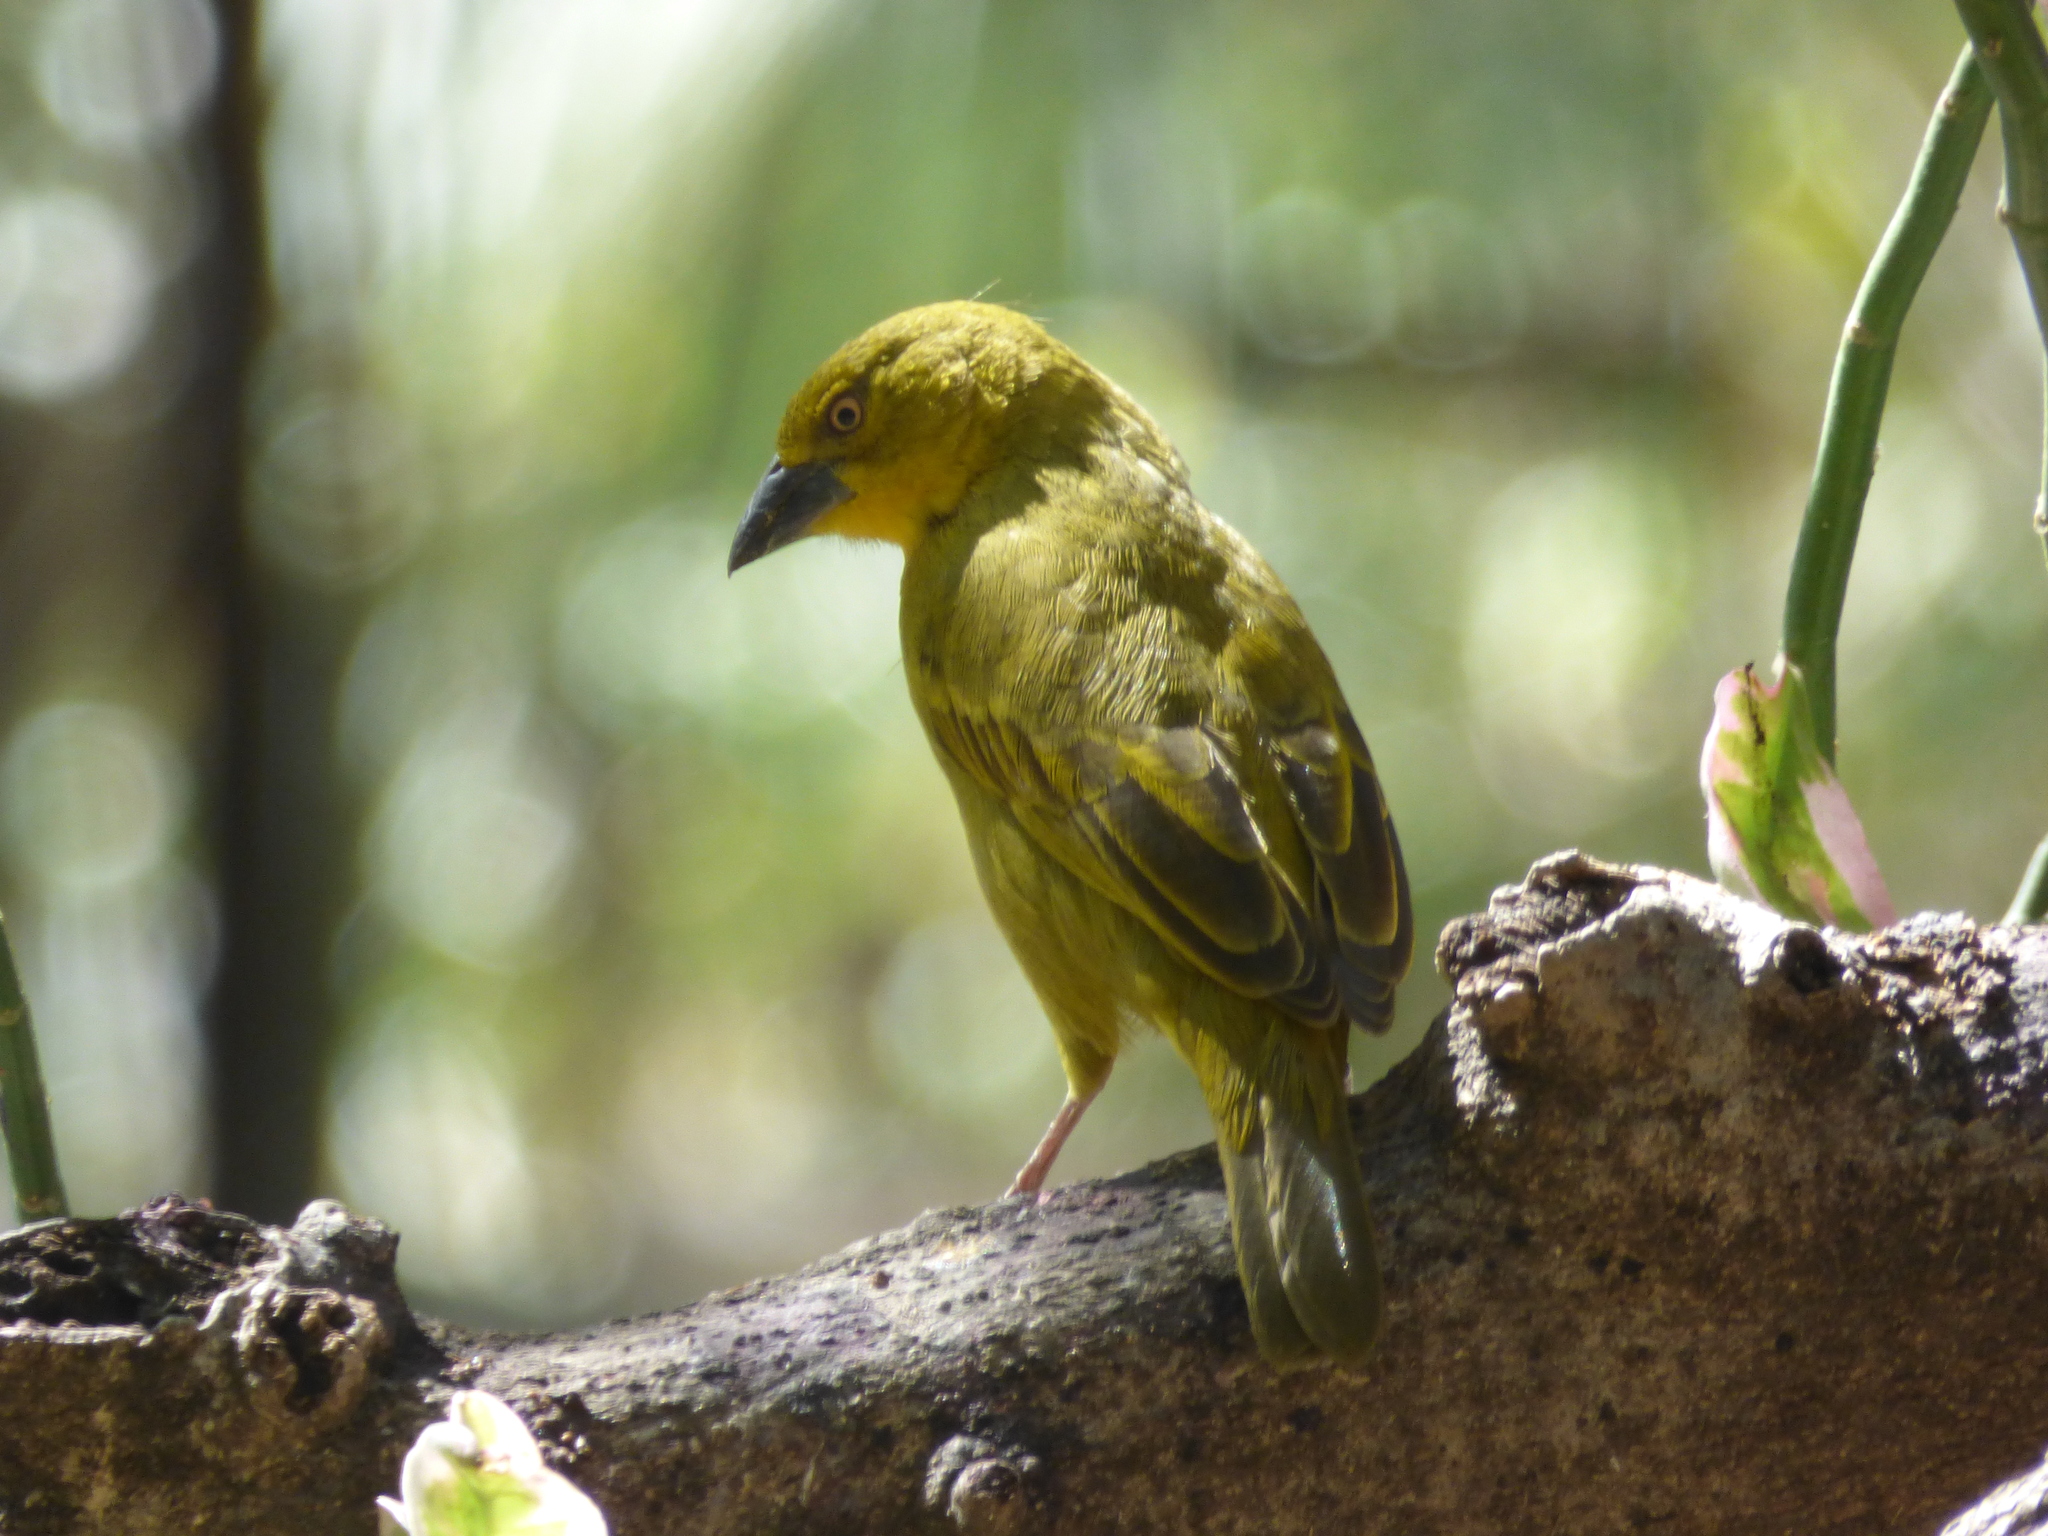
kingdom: Animalia
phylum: Chordata
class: Aves
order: Passeriformes
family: Ploceidae
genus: Ploceus
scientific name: Ploceus xanthops
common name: Holub's golden weaver
